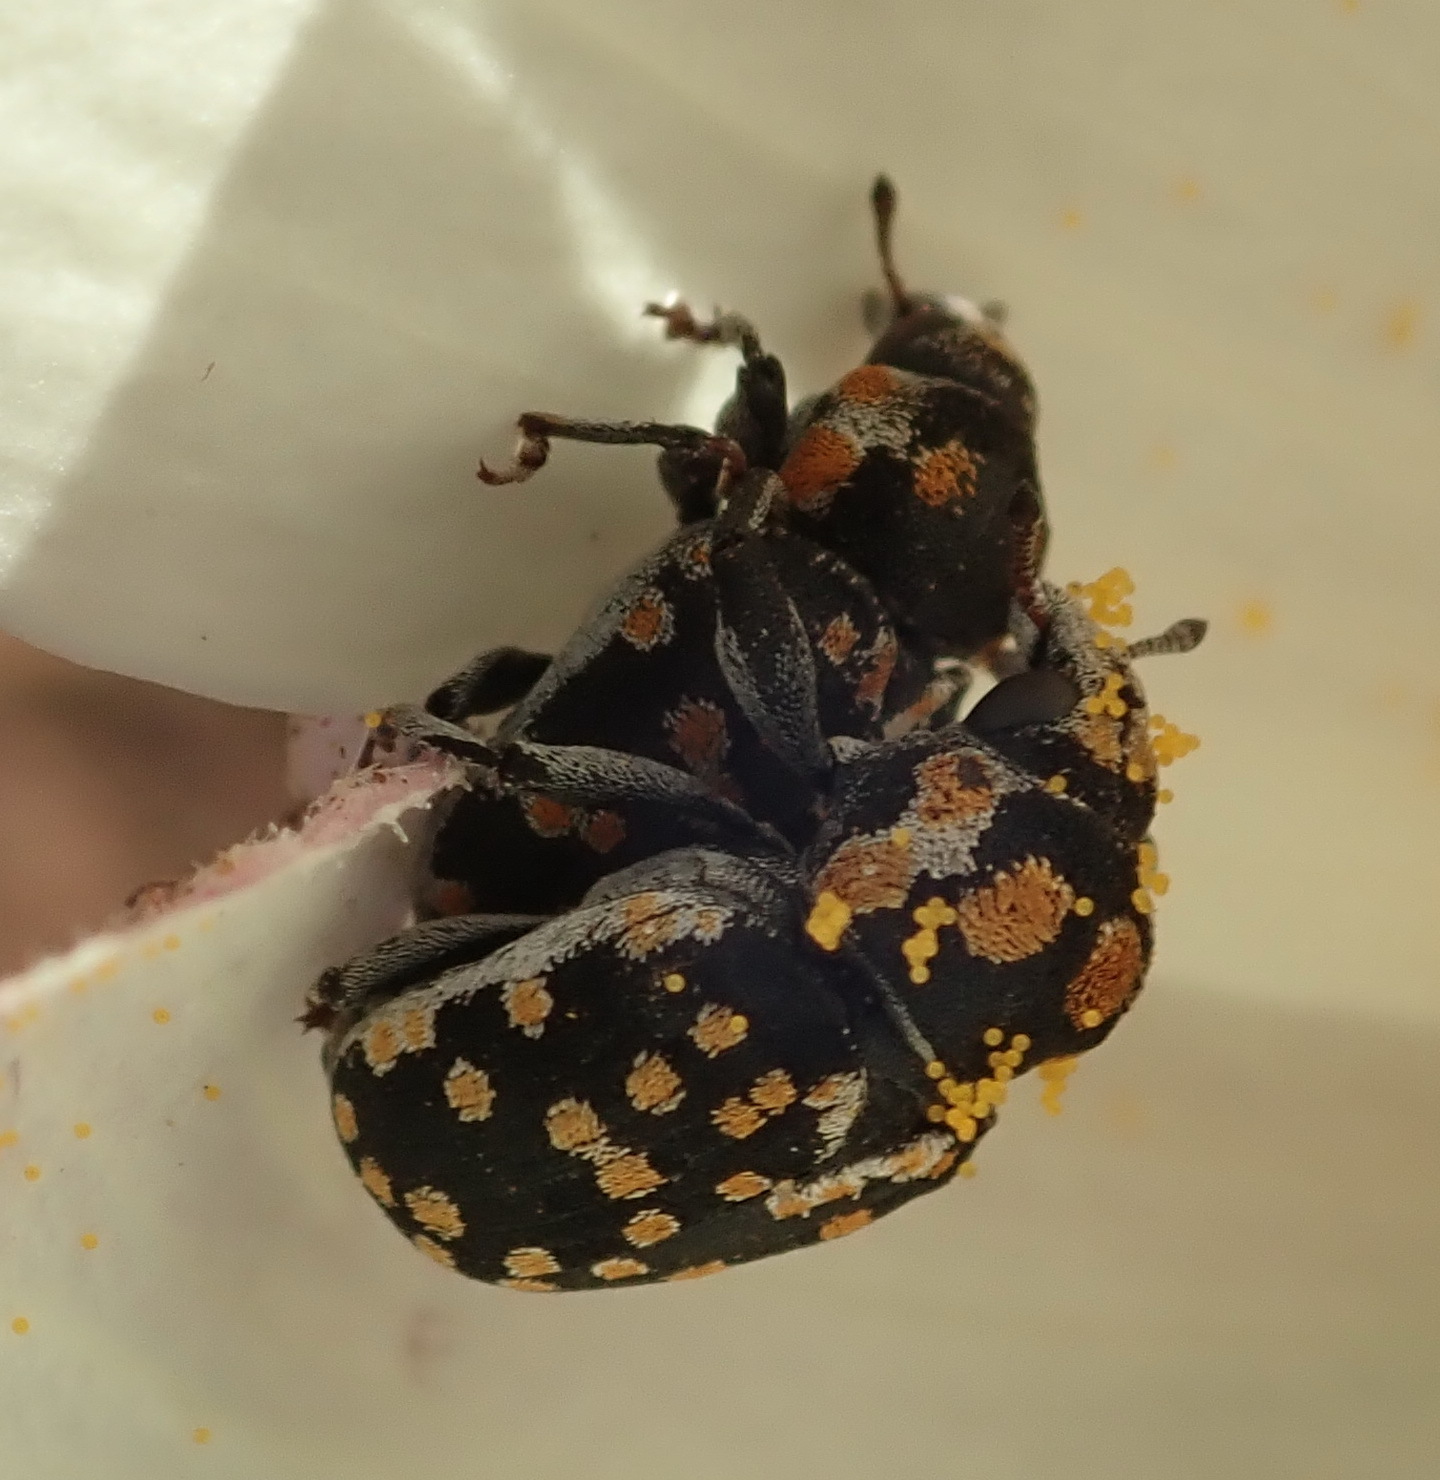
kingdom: Animalia
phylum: Arthropoda
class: Insecta
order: Coleoptera
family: Curculionidae
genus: Nerthops
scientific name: Nerthops sticticus
